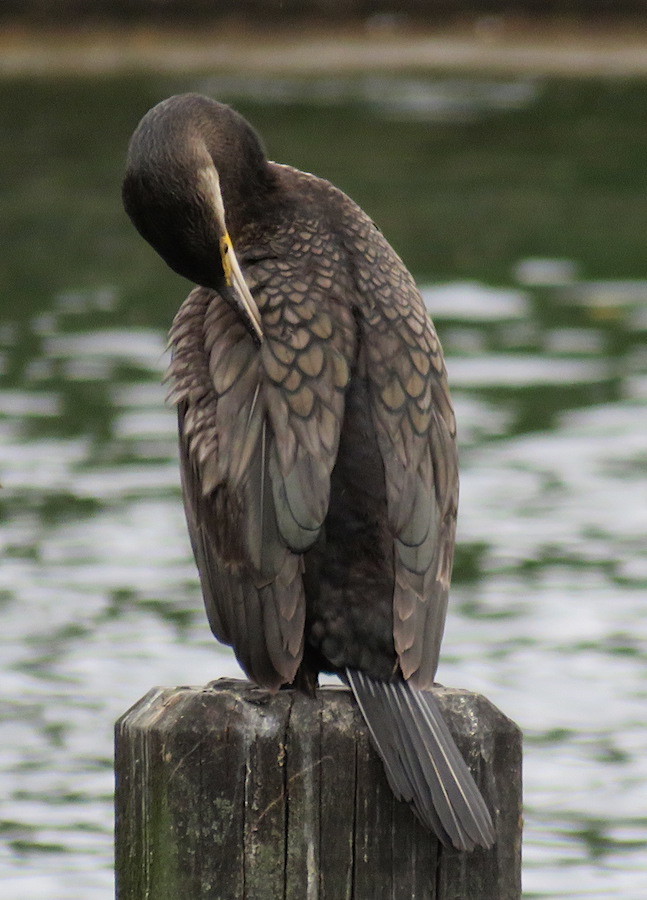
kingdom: Animalia
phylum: Chordata
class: Aves
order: Suliformes
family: Phalacrocoracidae
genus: Phalacrocorax
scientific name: Phalacrocorax carbo
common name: Great cormorant
